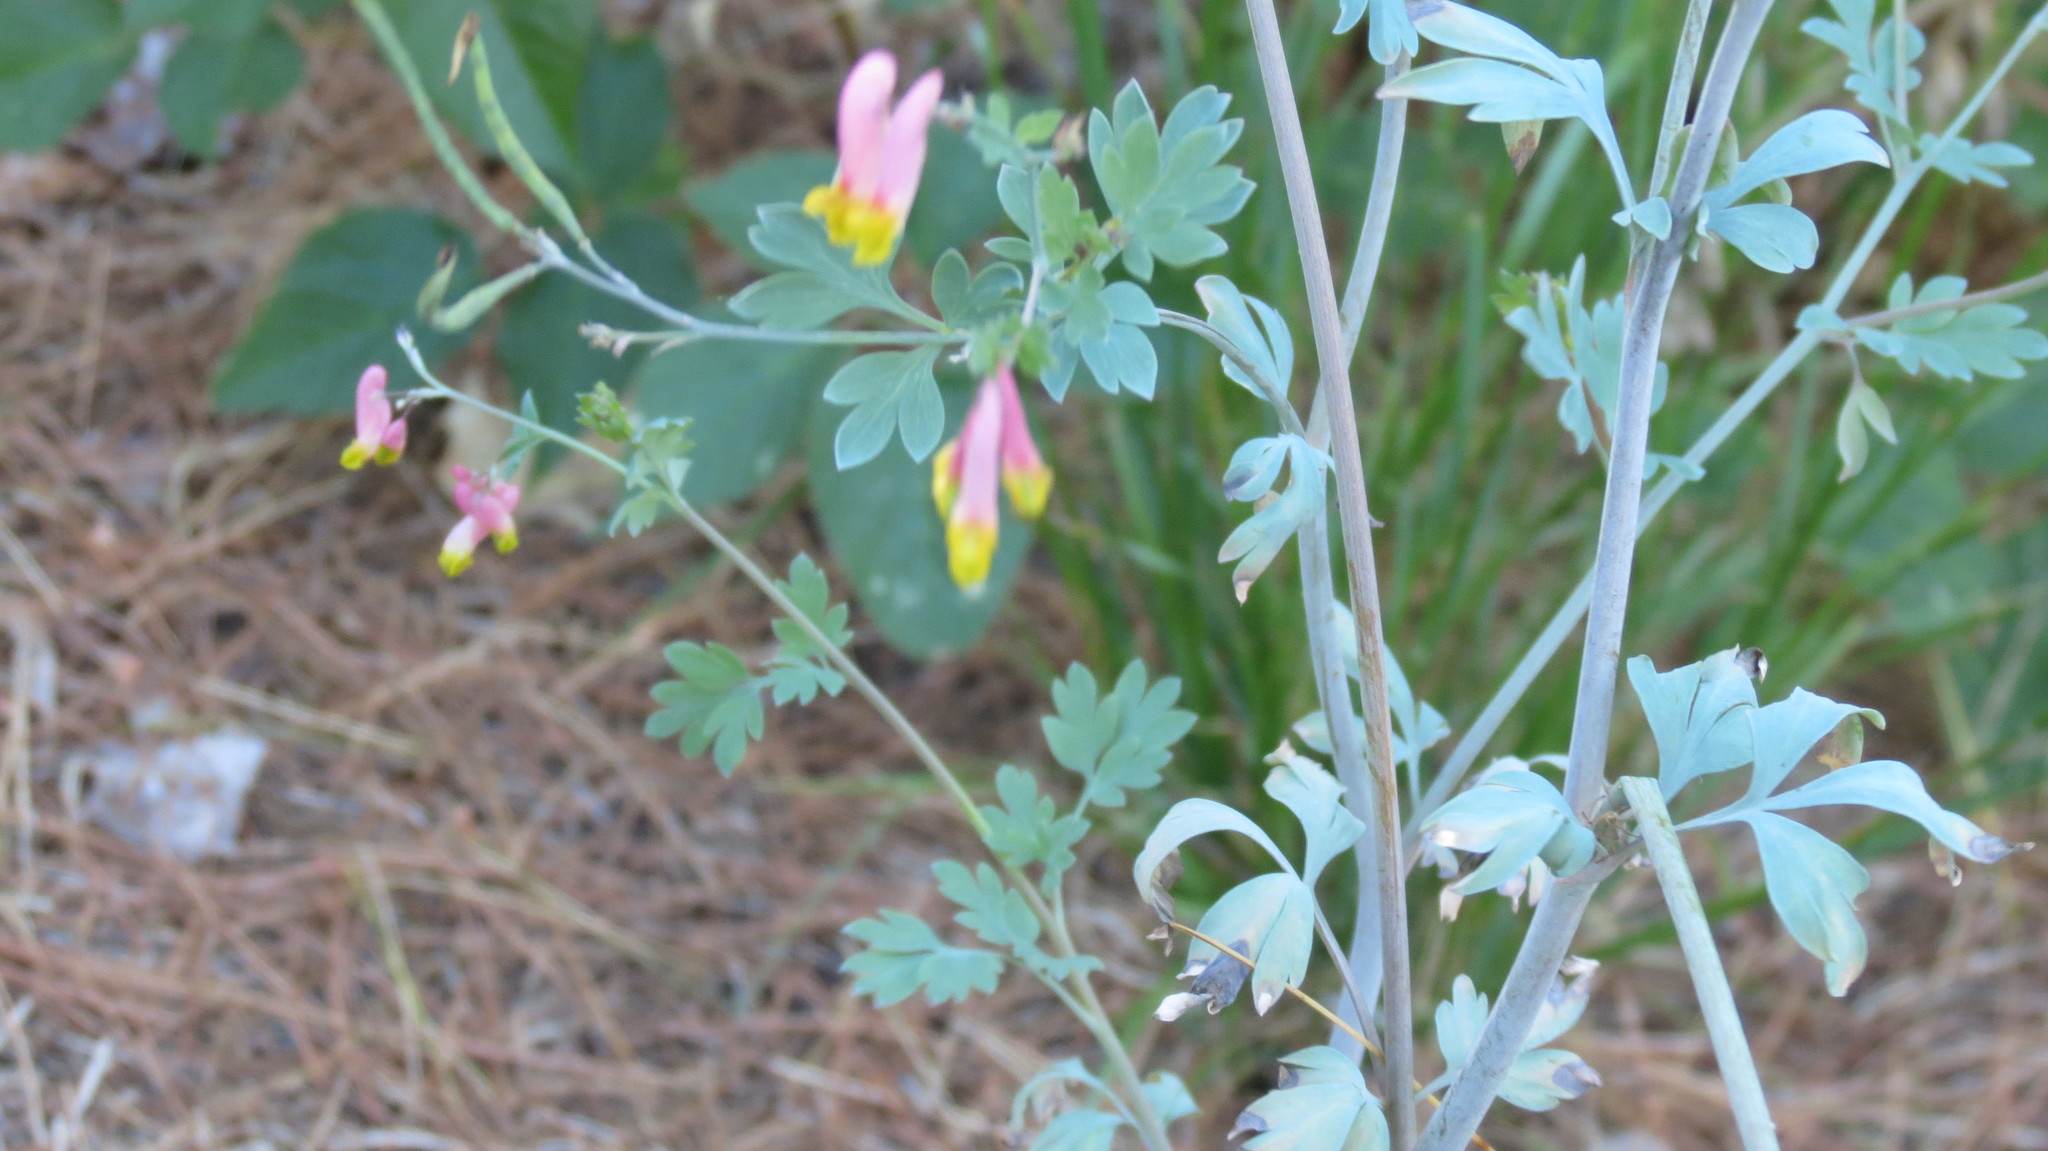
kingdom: Plantae
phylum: Tracheophyta
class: Magnoliopsida
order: Ranunculales
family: Papaveraceae
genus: Capnoides
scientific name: Capnoides sempervirens
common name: Rock harlequin
